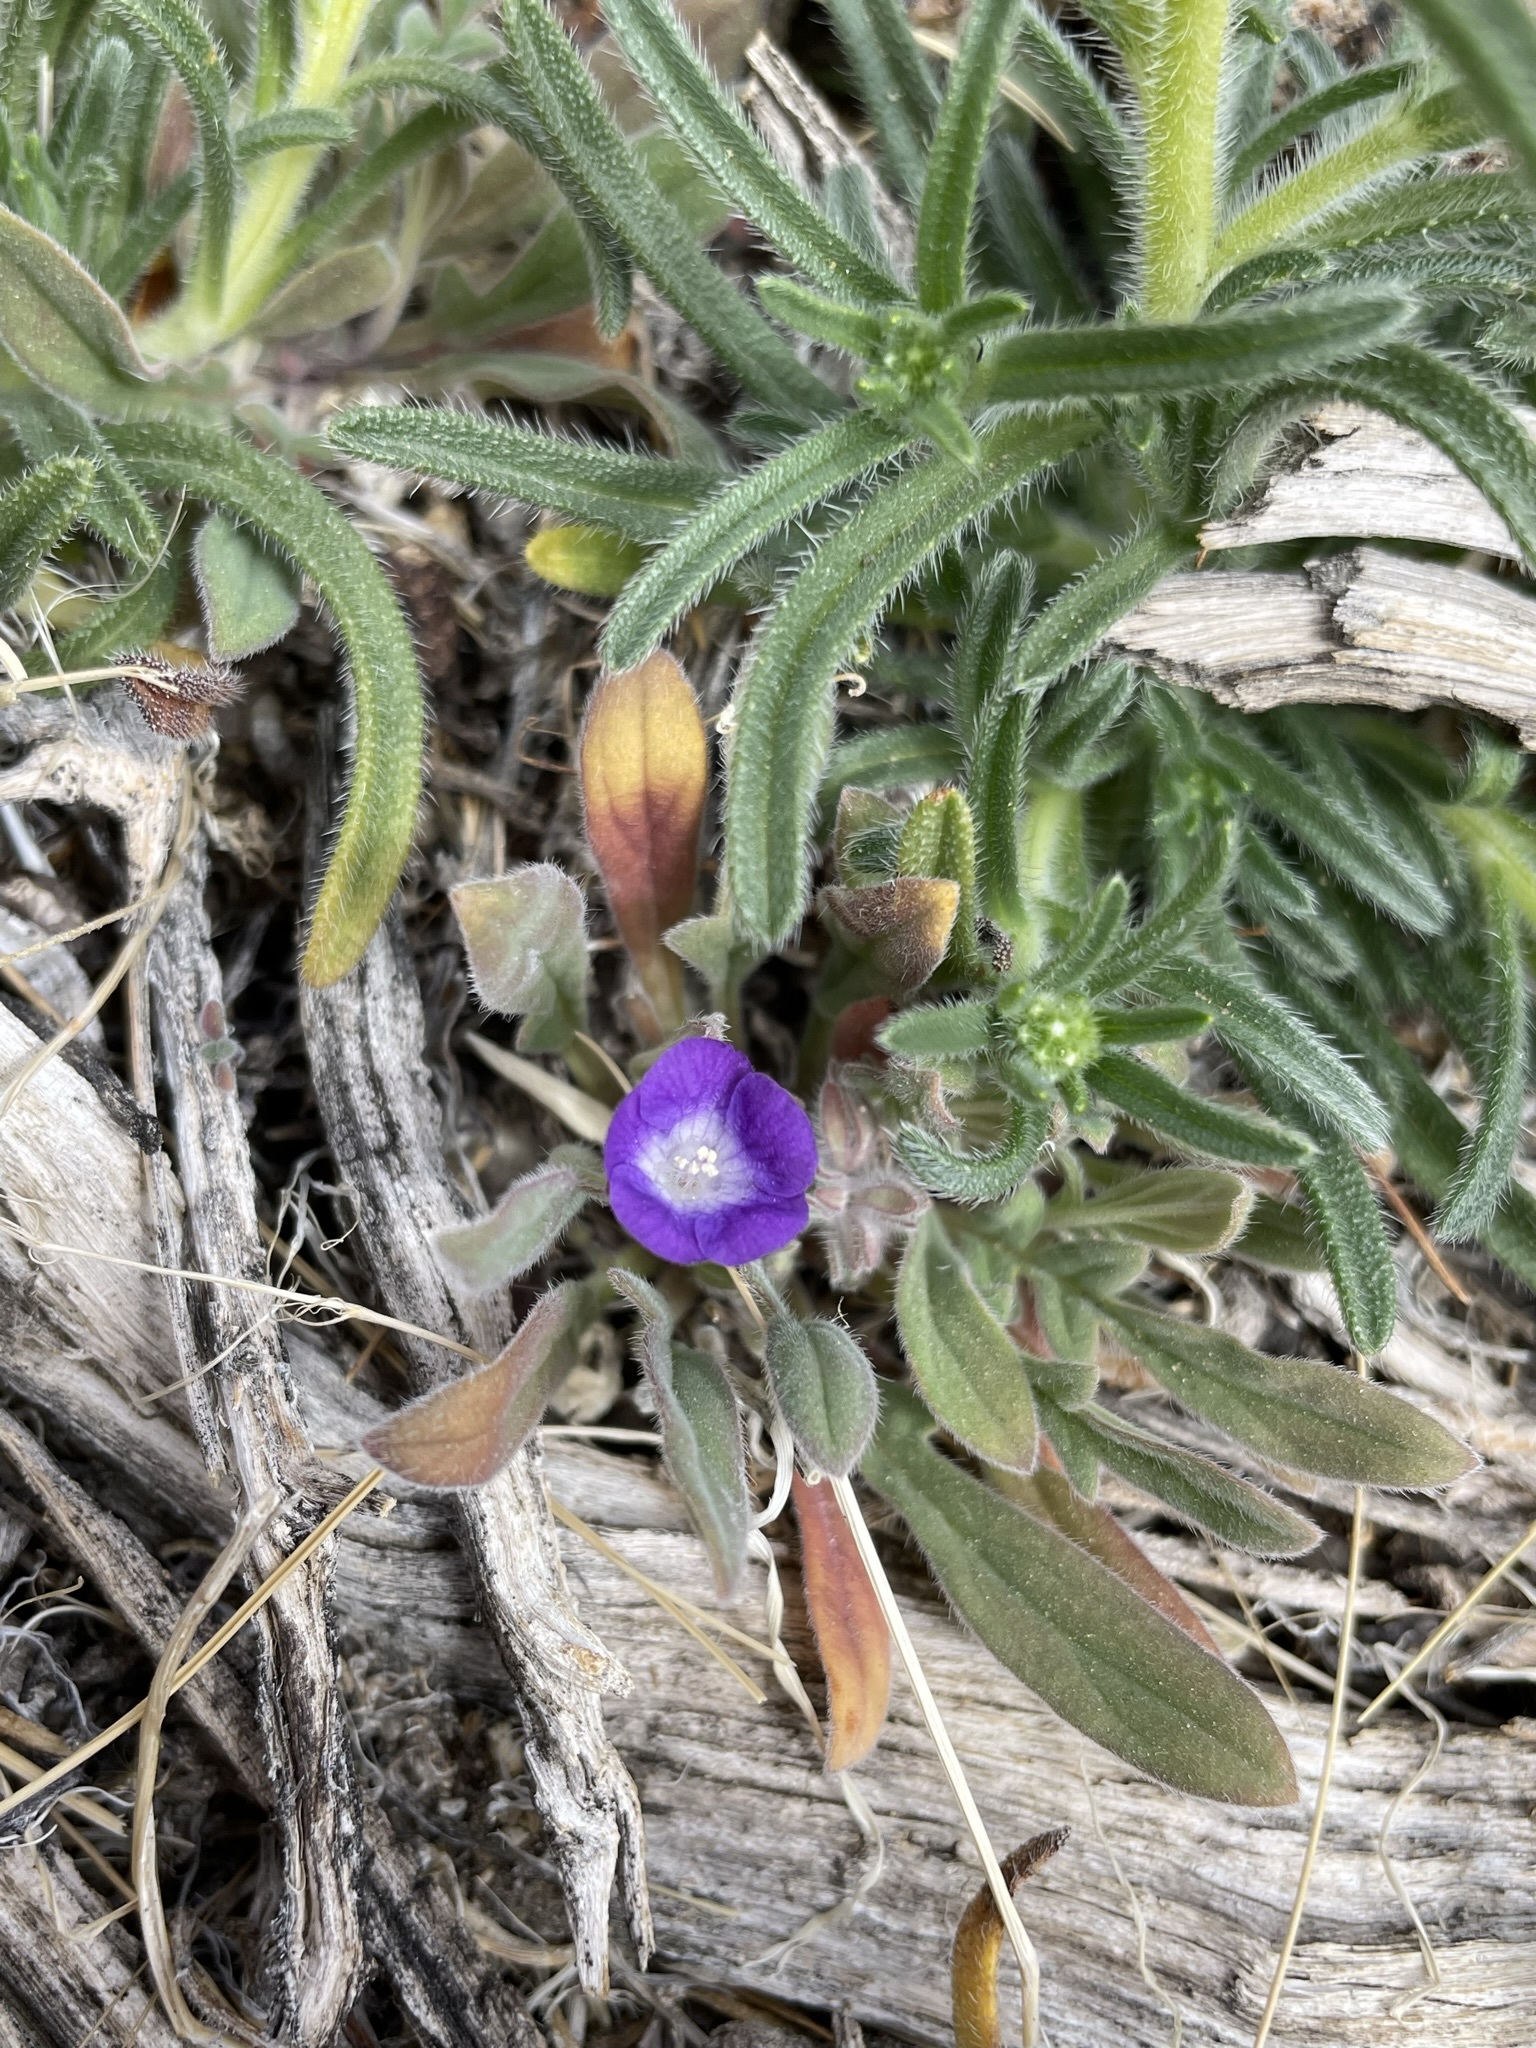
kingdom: Plantae
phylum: Tracheophyta
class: Magnoliopsida
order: Boraginales
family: Hydrophyllaceae
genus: Phacelia
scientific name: Phacelia curvipes
